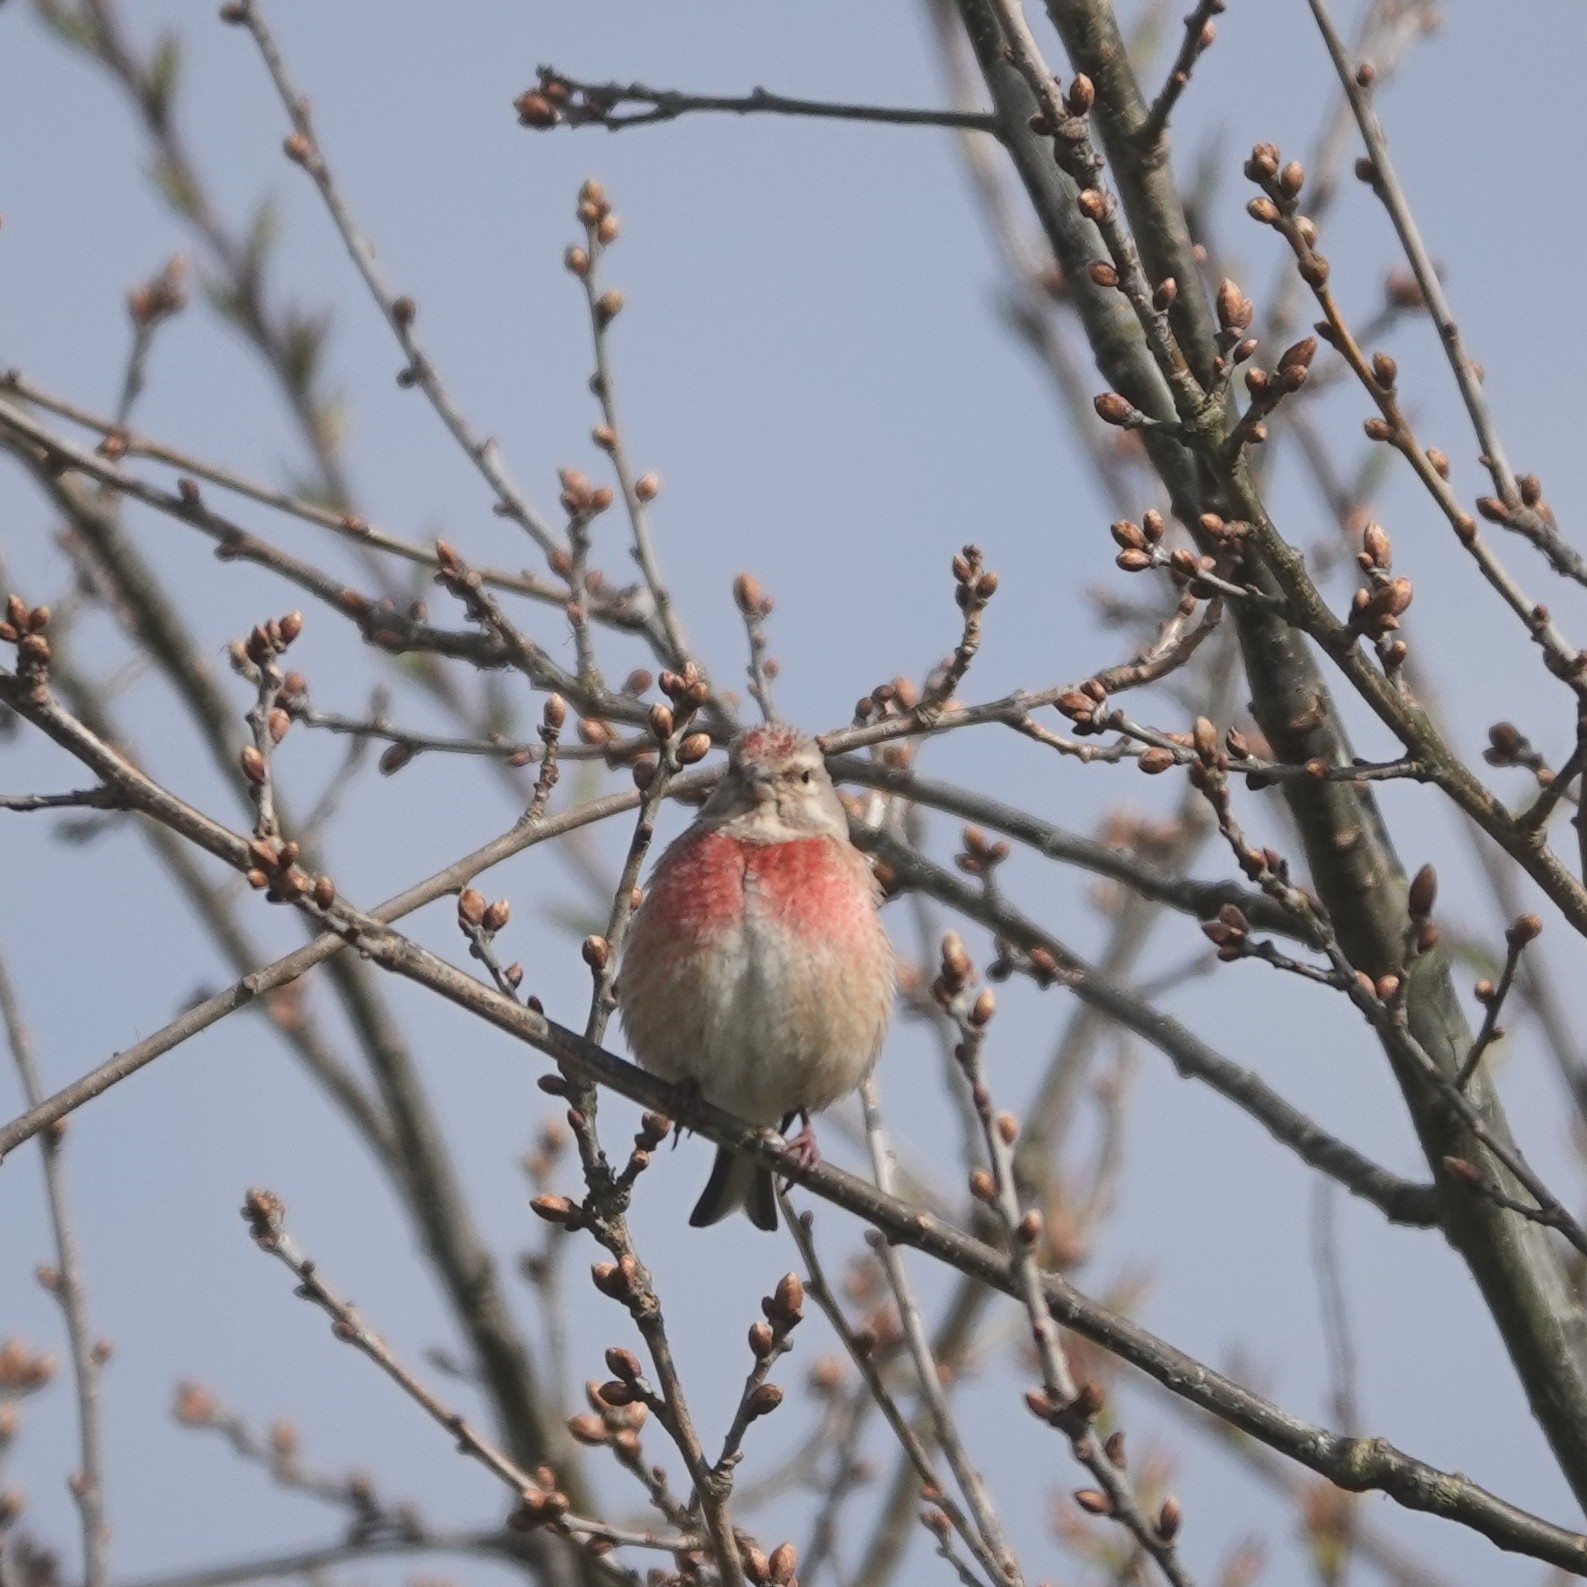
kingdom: Animalia
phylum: Chordata
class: Aves
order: Passeriformes
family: Fringillidae
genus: Linaria
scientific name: Linaria cannabina
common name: Common linnet
